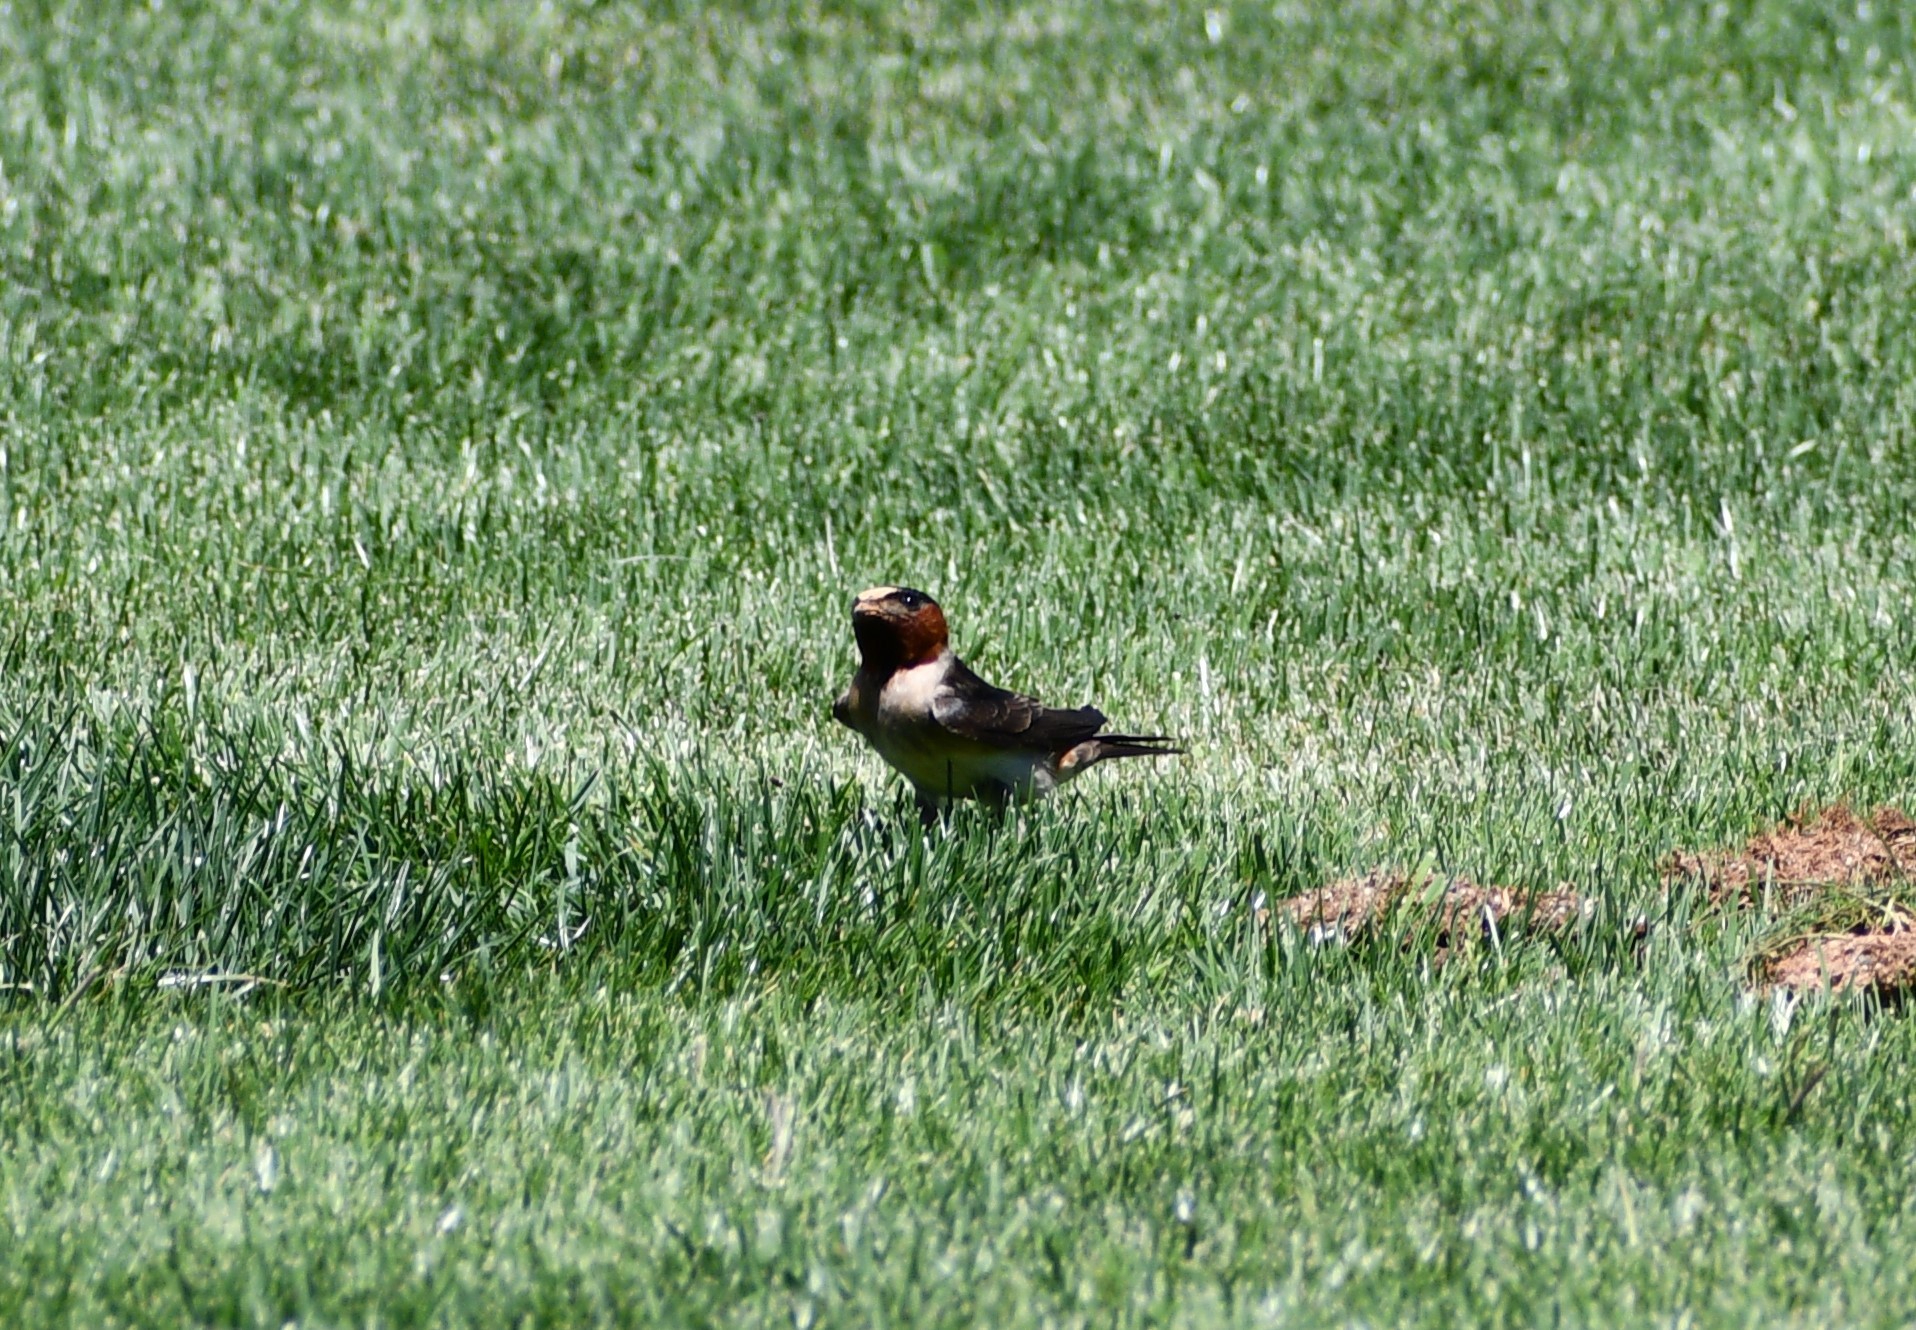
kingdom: Animalia
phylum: Chordata
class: Aves
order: Passeriformes
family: Hirundinidae
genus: Petrochelidon
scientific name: Petrochelidon pyrrhonota
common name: American cliff swallow
